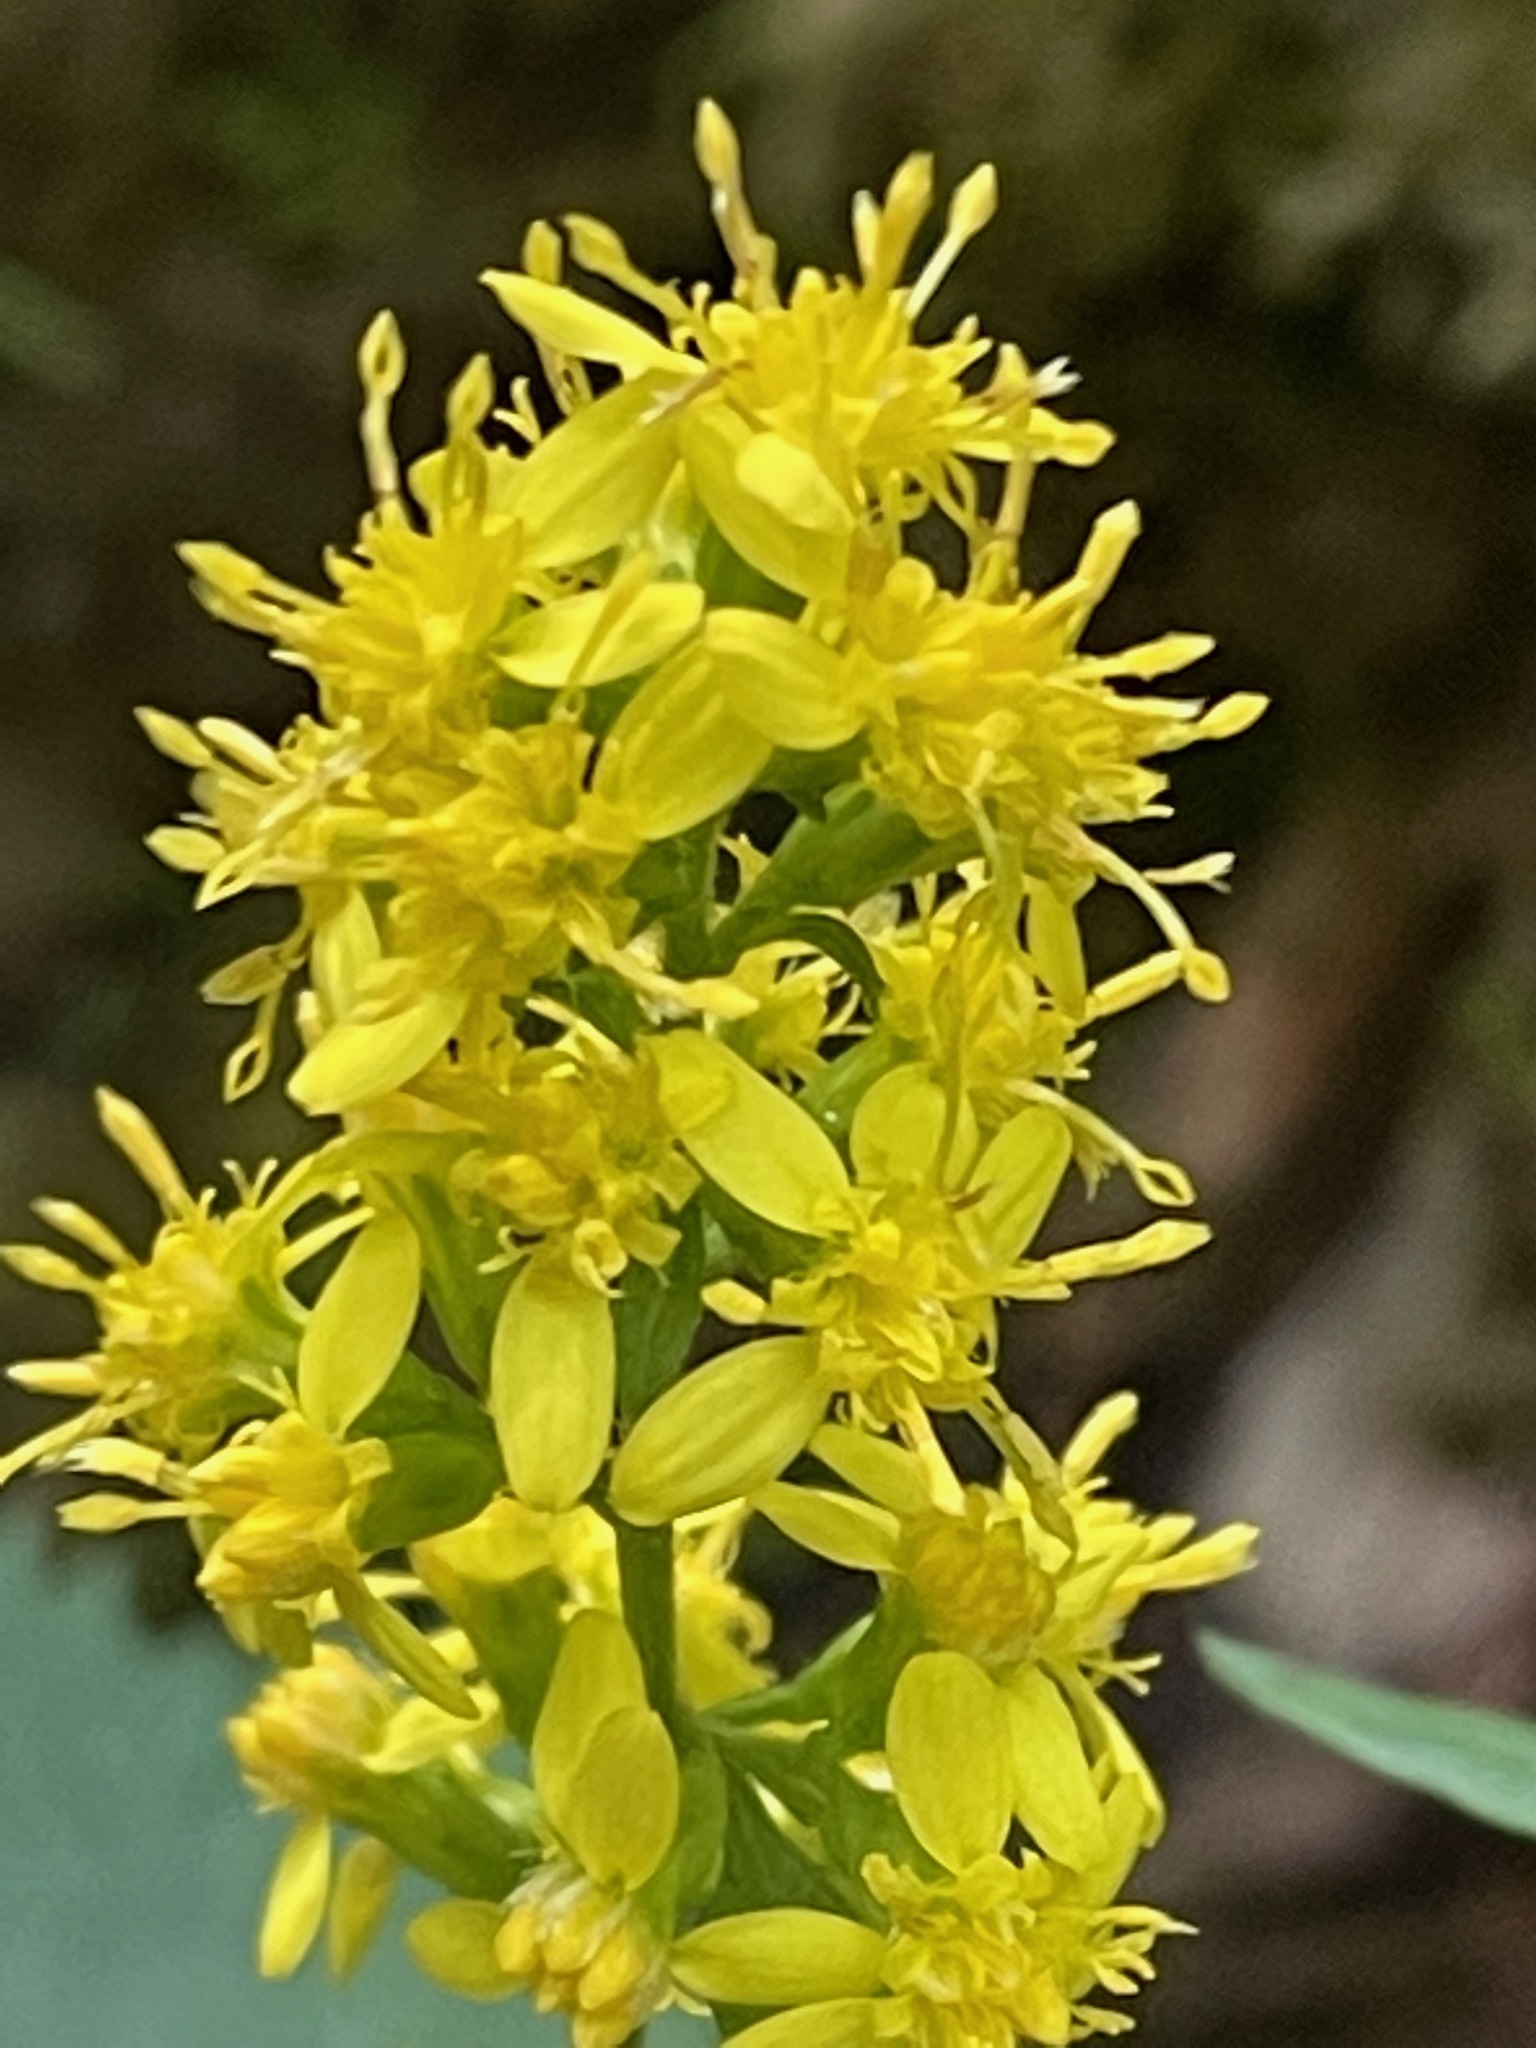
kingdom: Plantae
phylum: Tracheophyta
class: Magnoliopsida
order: Asterales
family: Asteraceae
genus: Solidago
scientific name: Solidago flexicaulis
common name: Zig-zag goldenrod
